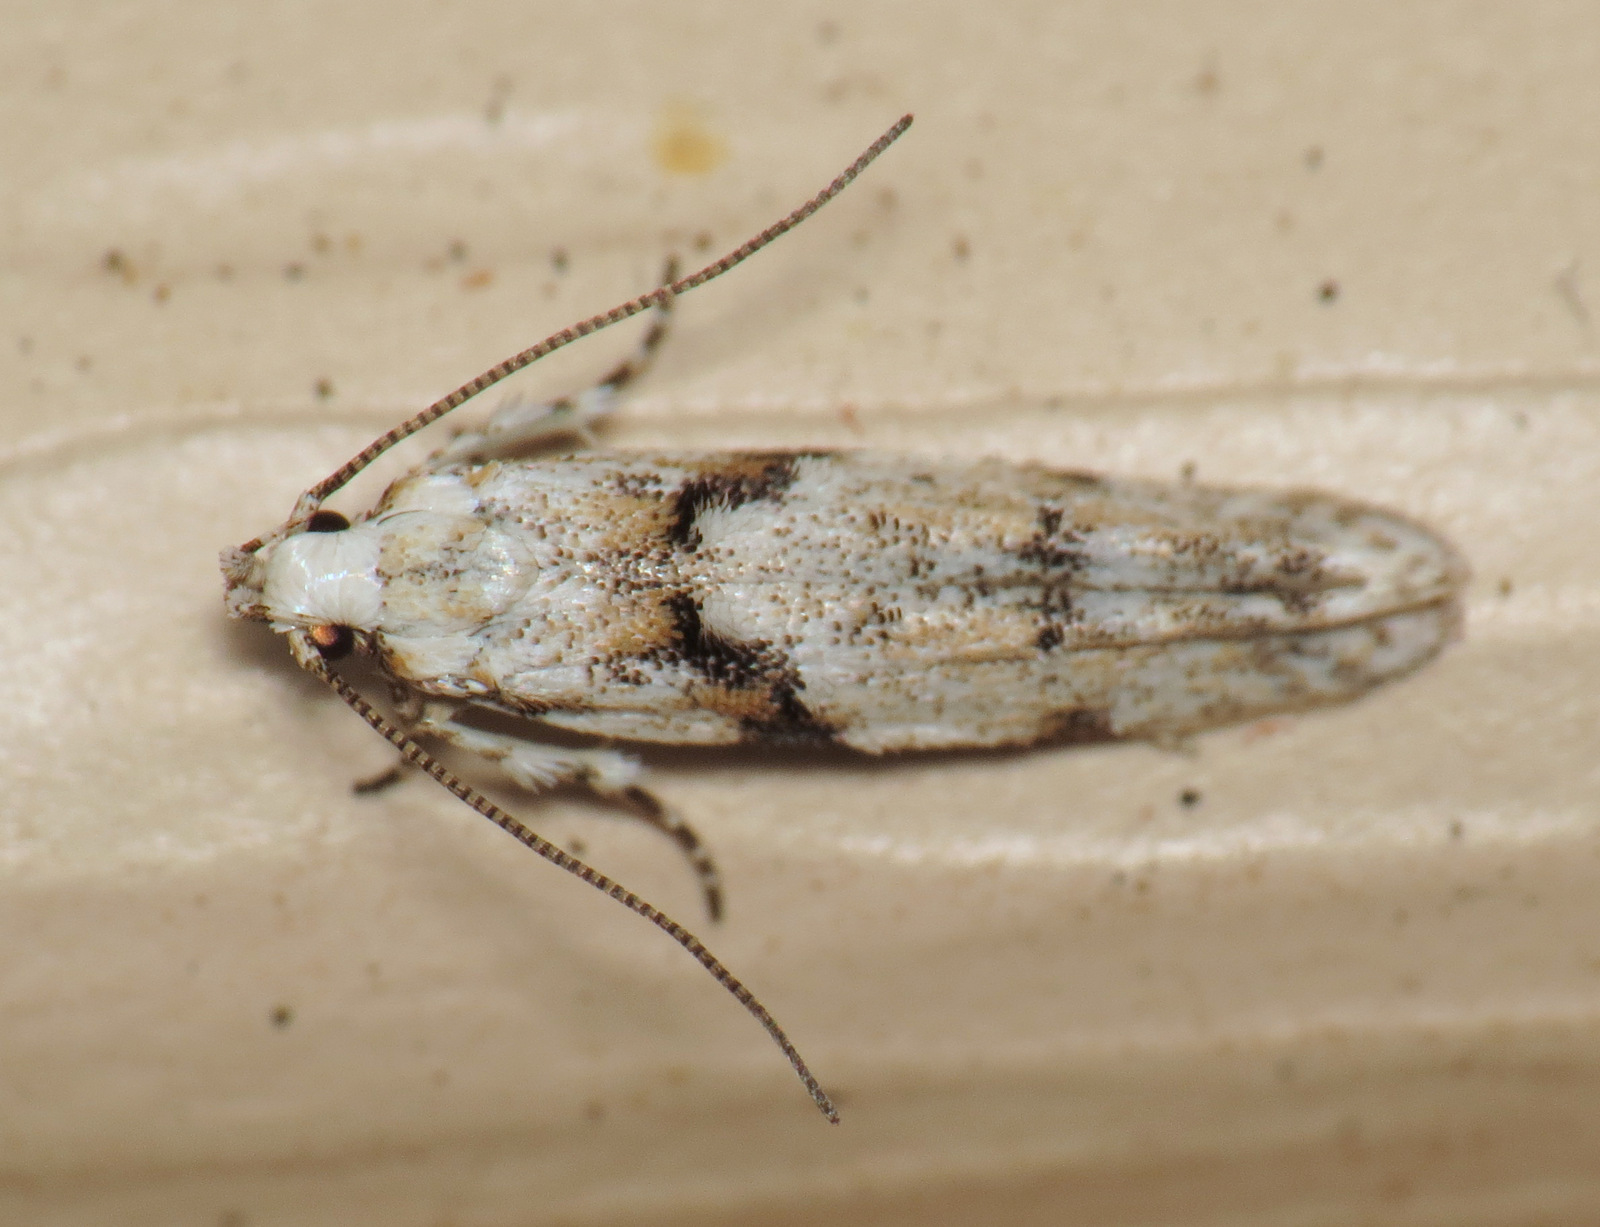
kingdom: Animalia
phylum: Arthropoda
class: Insecta
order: Lepidoptera
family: Gelechiidae
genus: Arogalea
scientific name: Arogalea cristifasciella
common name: White stripe-backed moth
